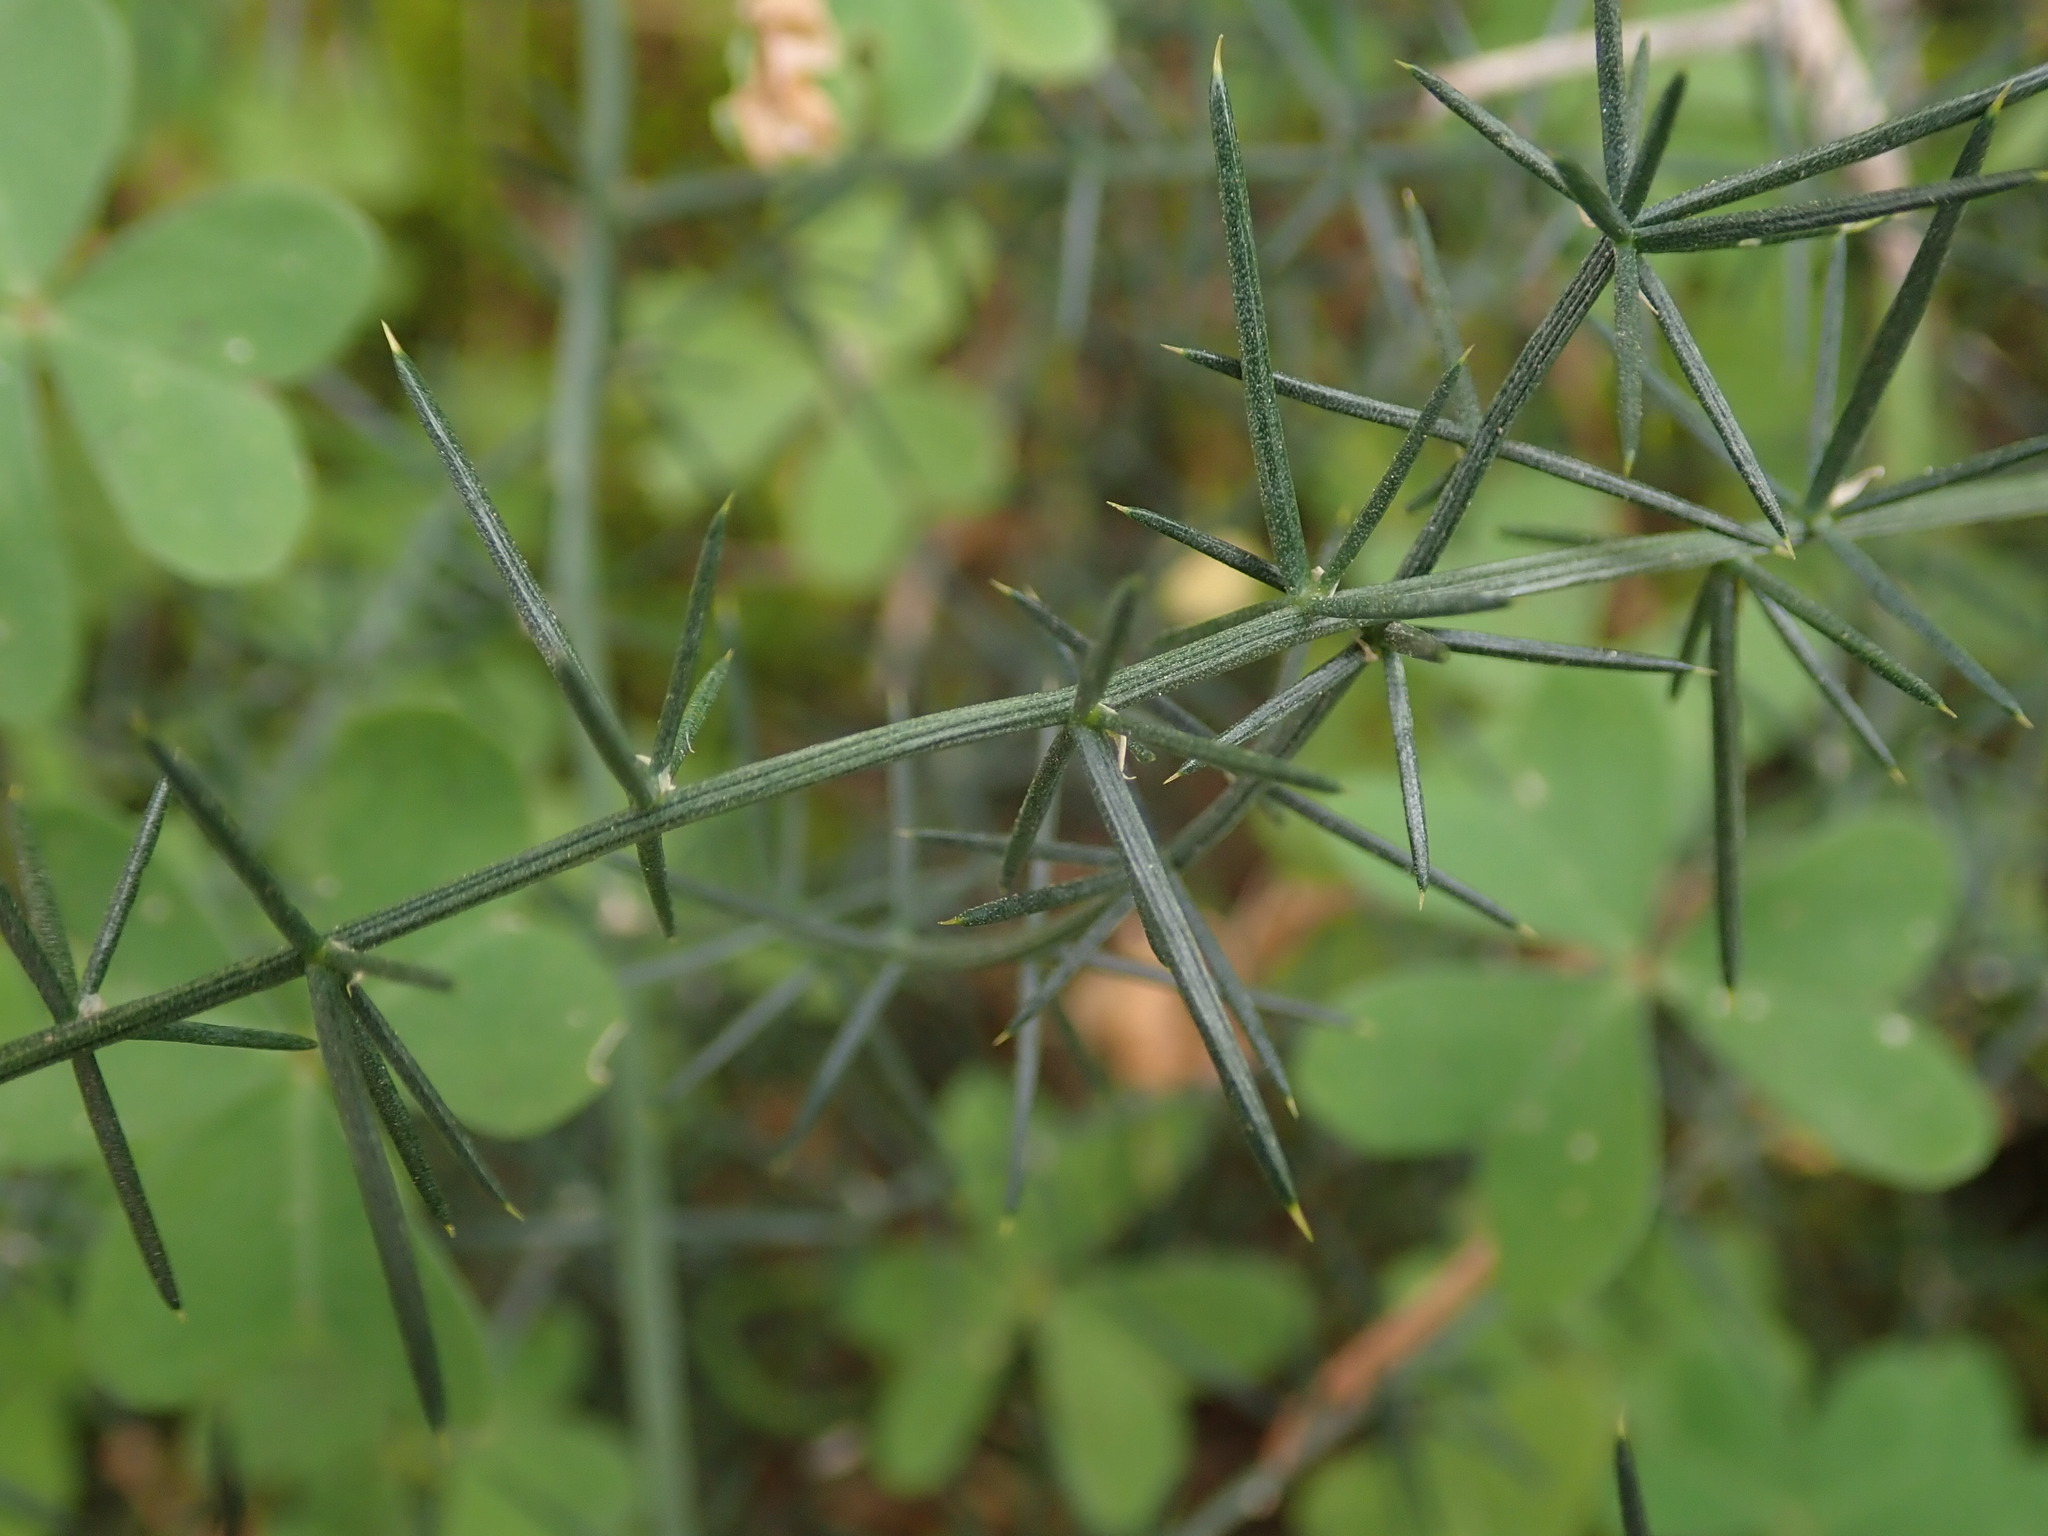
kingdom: Plantae
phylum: Tracheophyta
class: Liliopsida
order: Asparagales
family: Asparagaceae
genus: Asparagus
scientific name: Asparagus aphyllus
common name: Mediterranean asparagus
